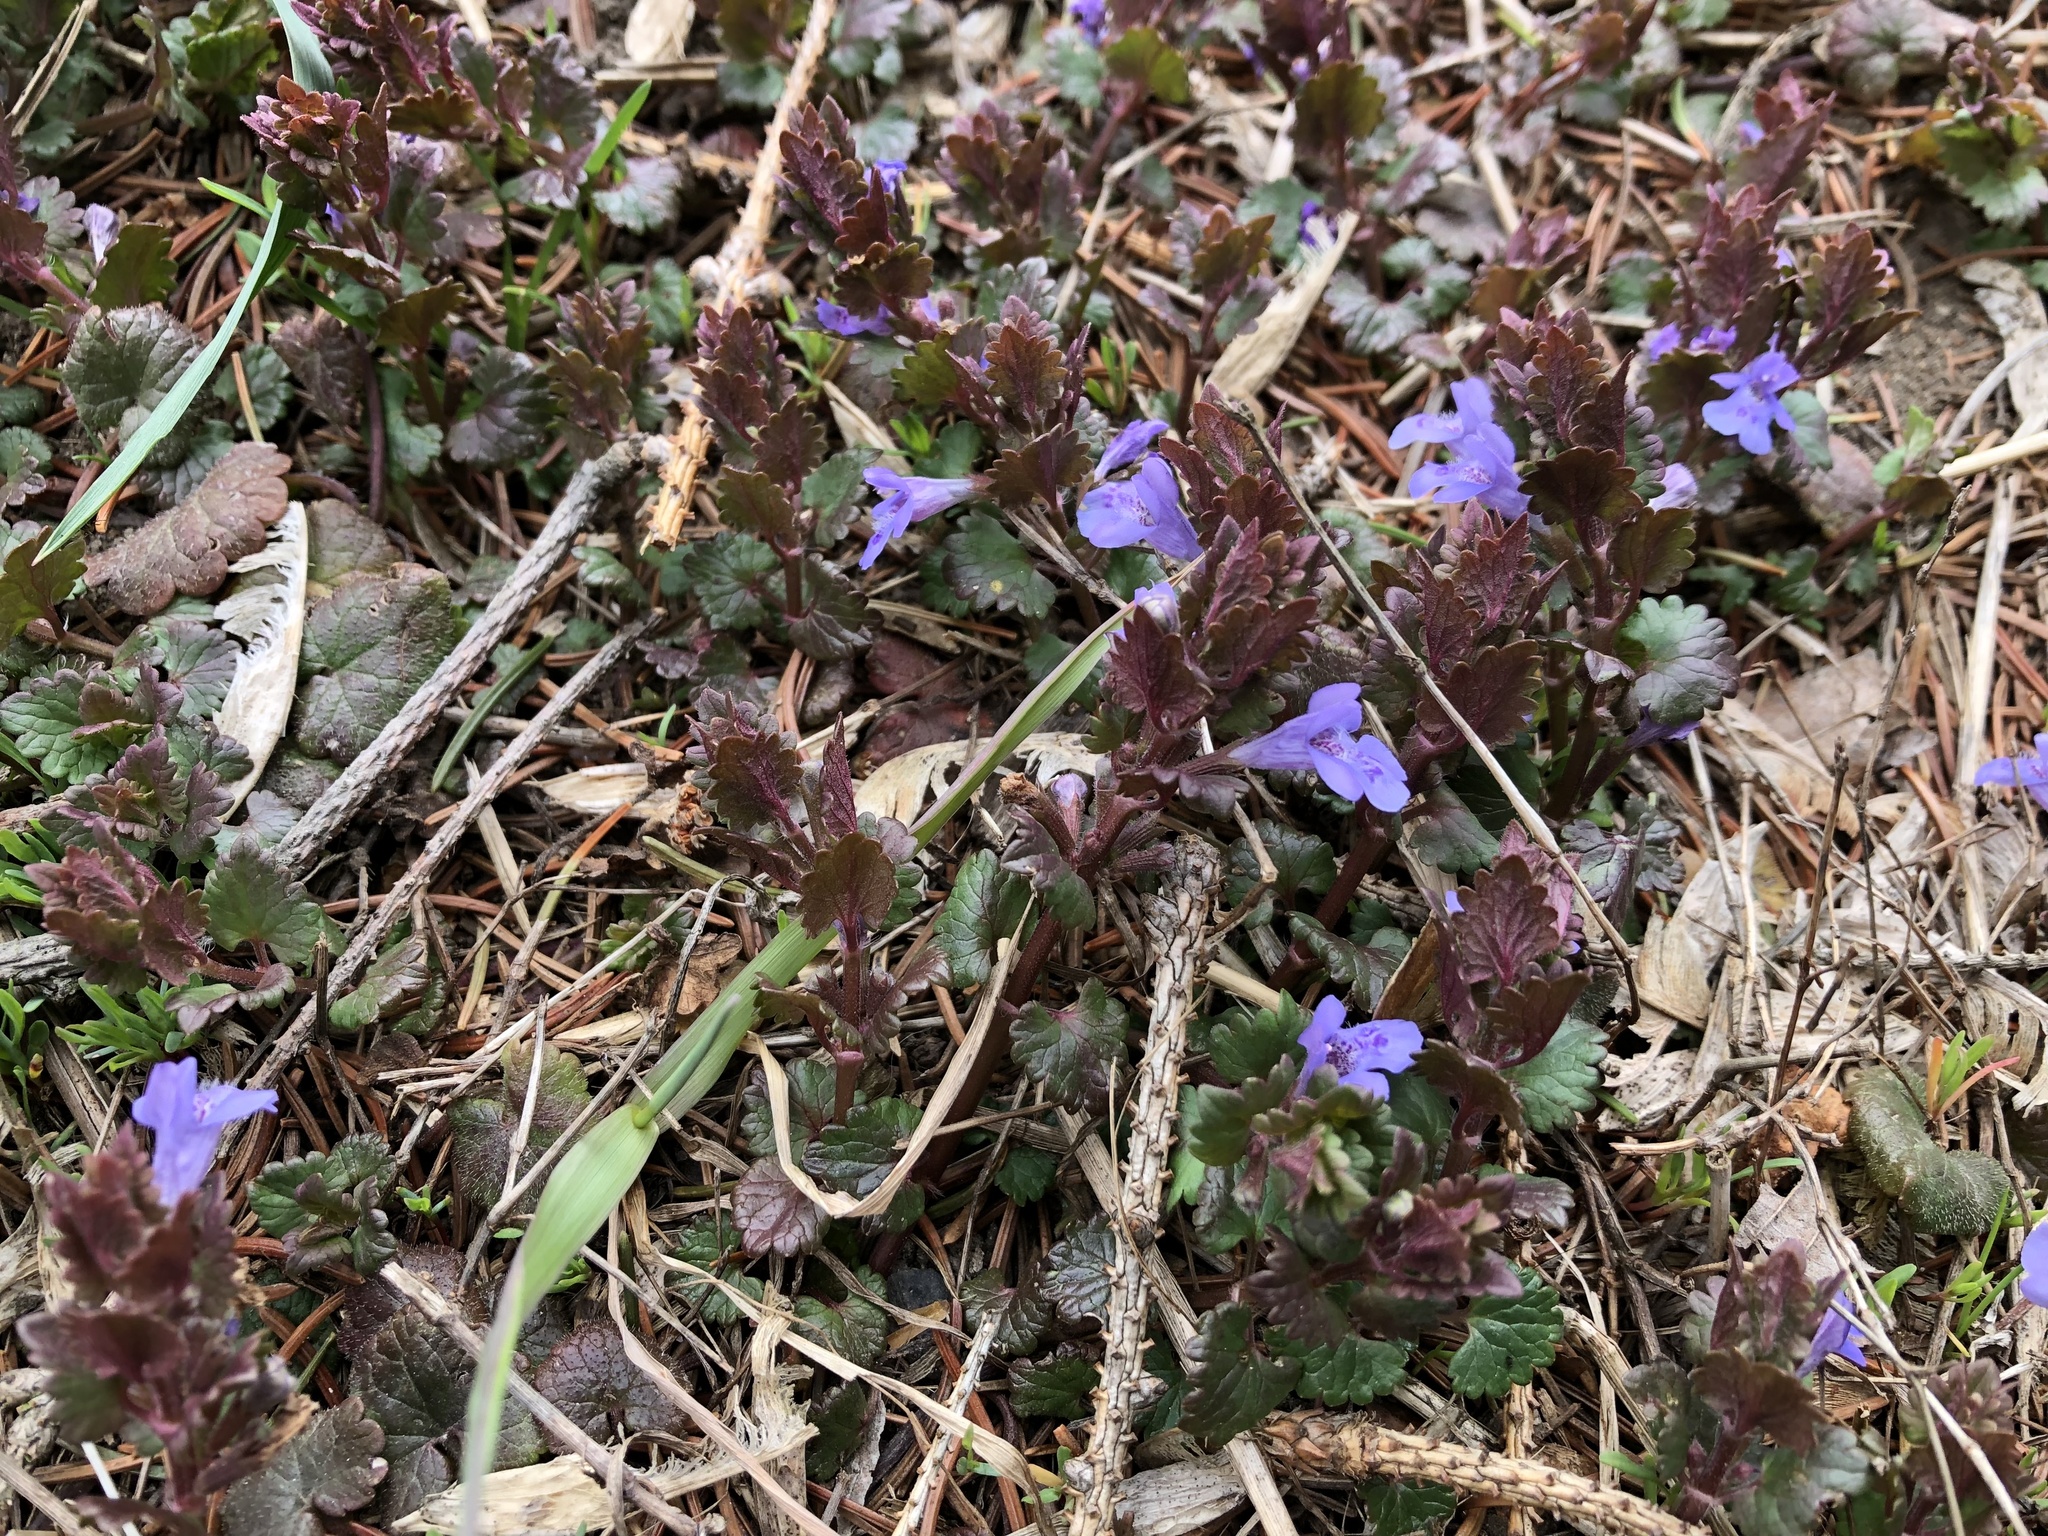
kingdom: Plantae
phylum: Tracheophyta
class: Magnoliopsida
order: Lamiales
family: Lamiaceae
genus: Glechoma
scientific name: Glechoma hederacea
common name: Ground ivy
